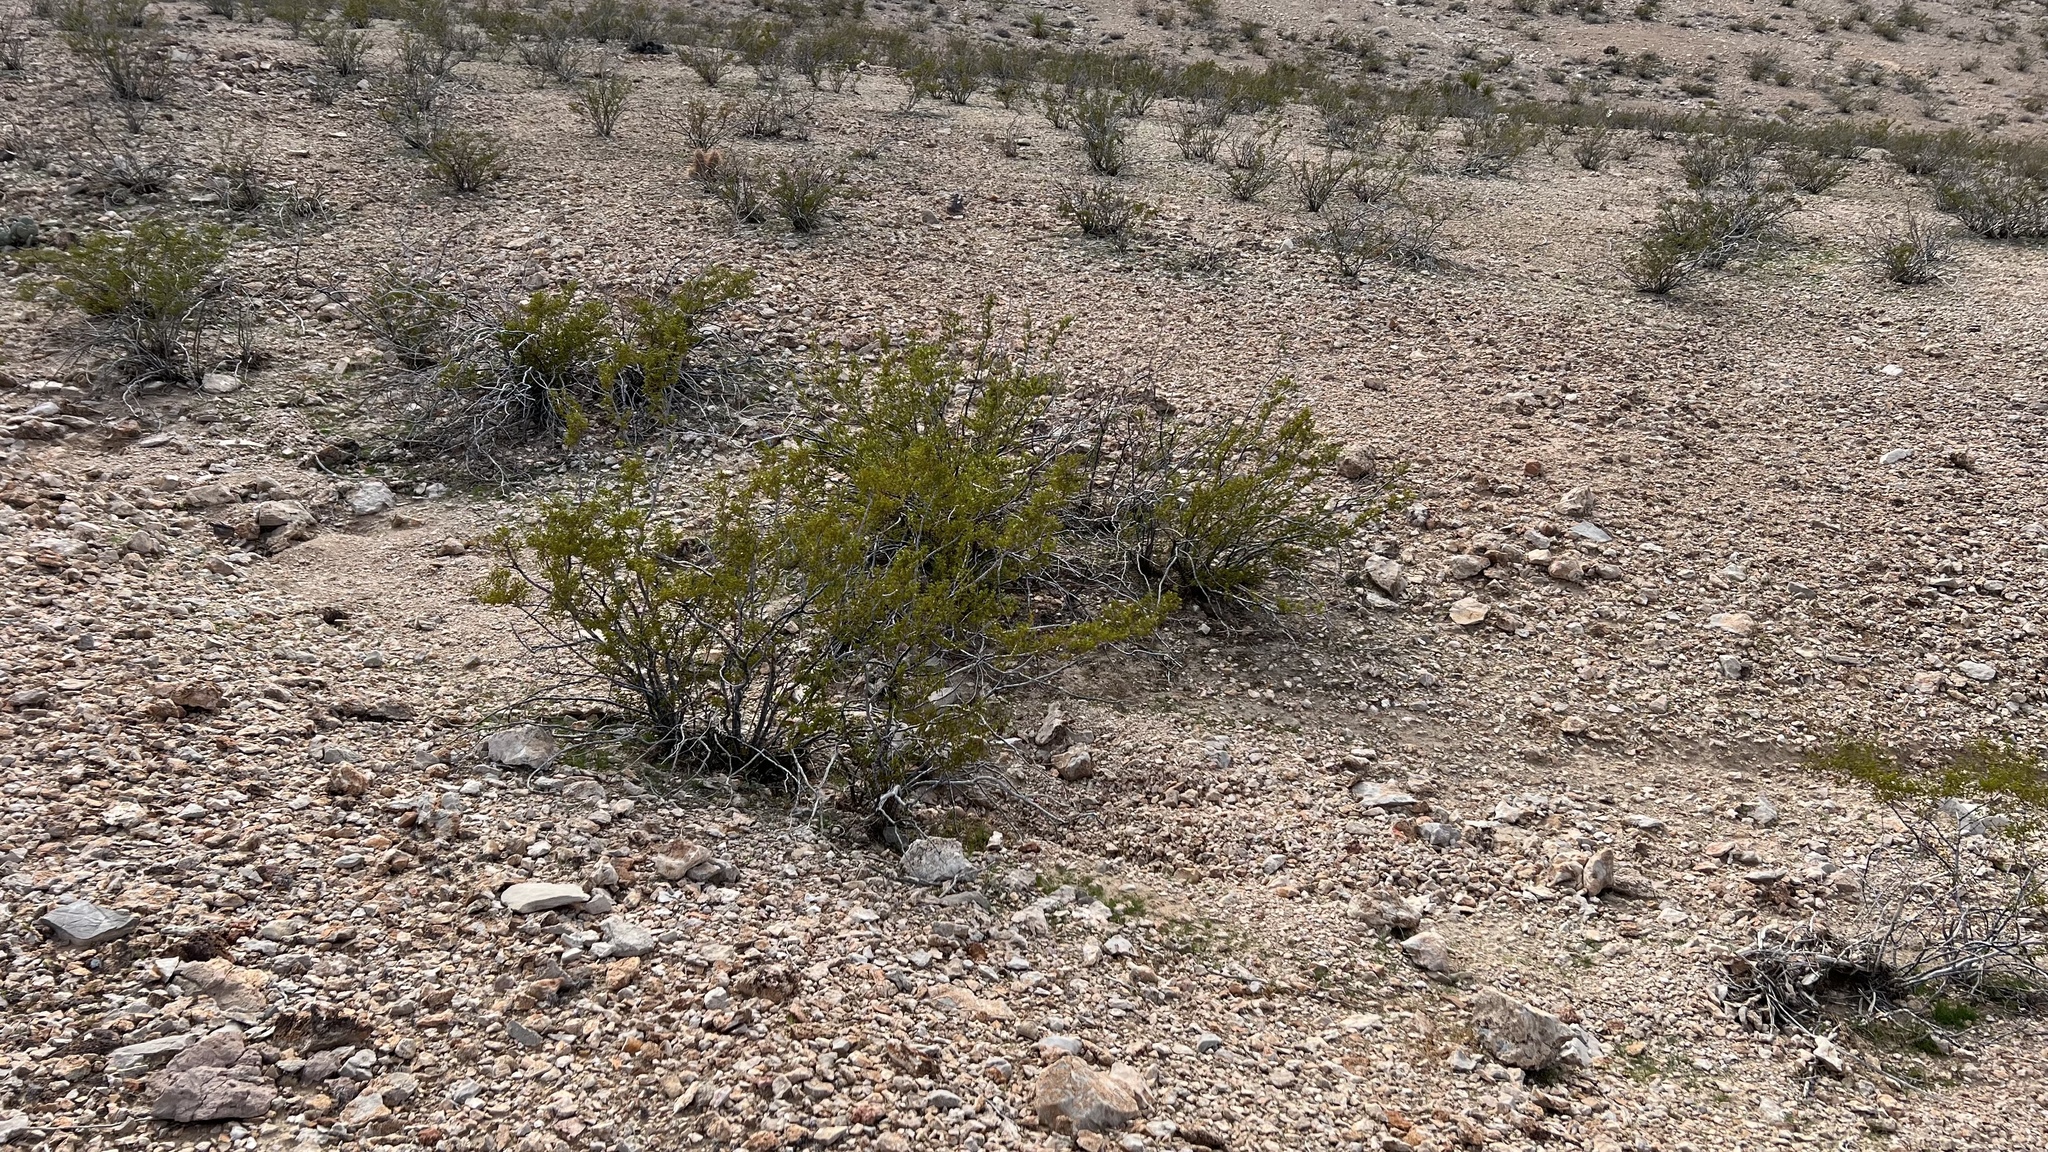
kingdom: Plantae
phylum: Tracheophyta
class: Magnoliopsida
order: Zygophyllales
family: Zygophyllaceae
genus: Larrea
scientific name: Larrea tridentata
